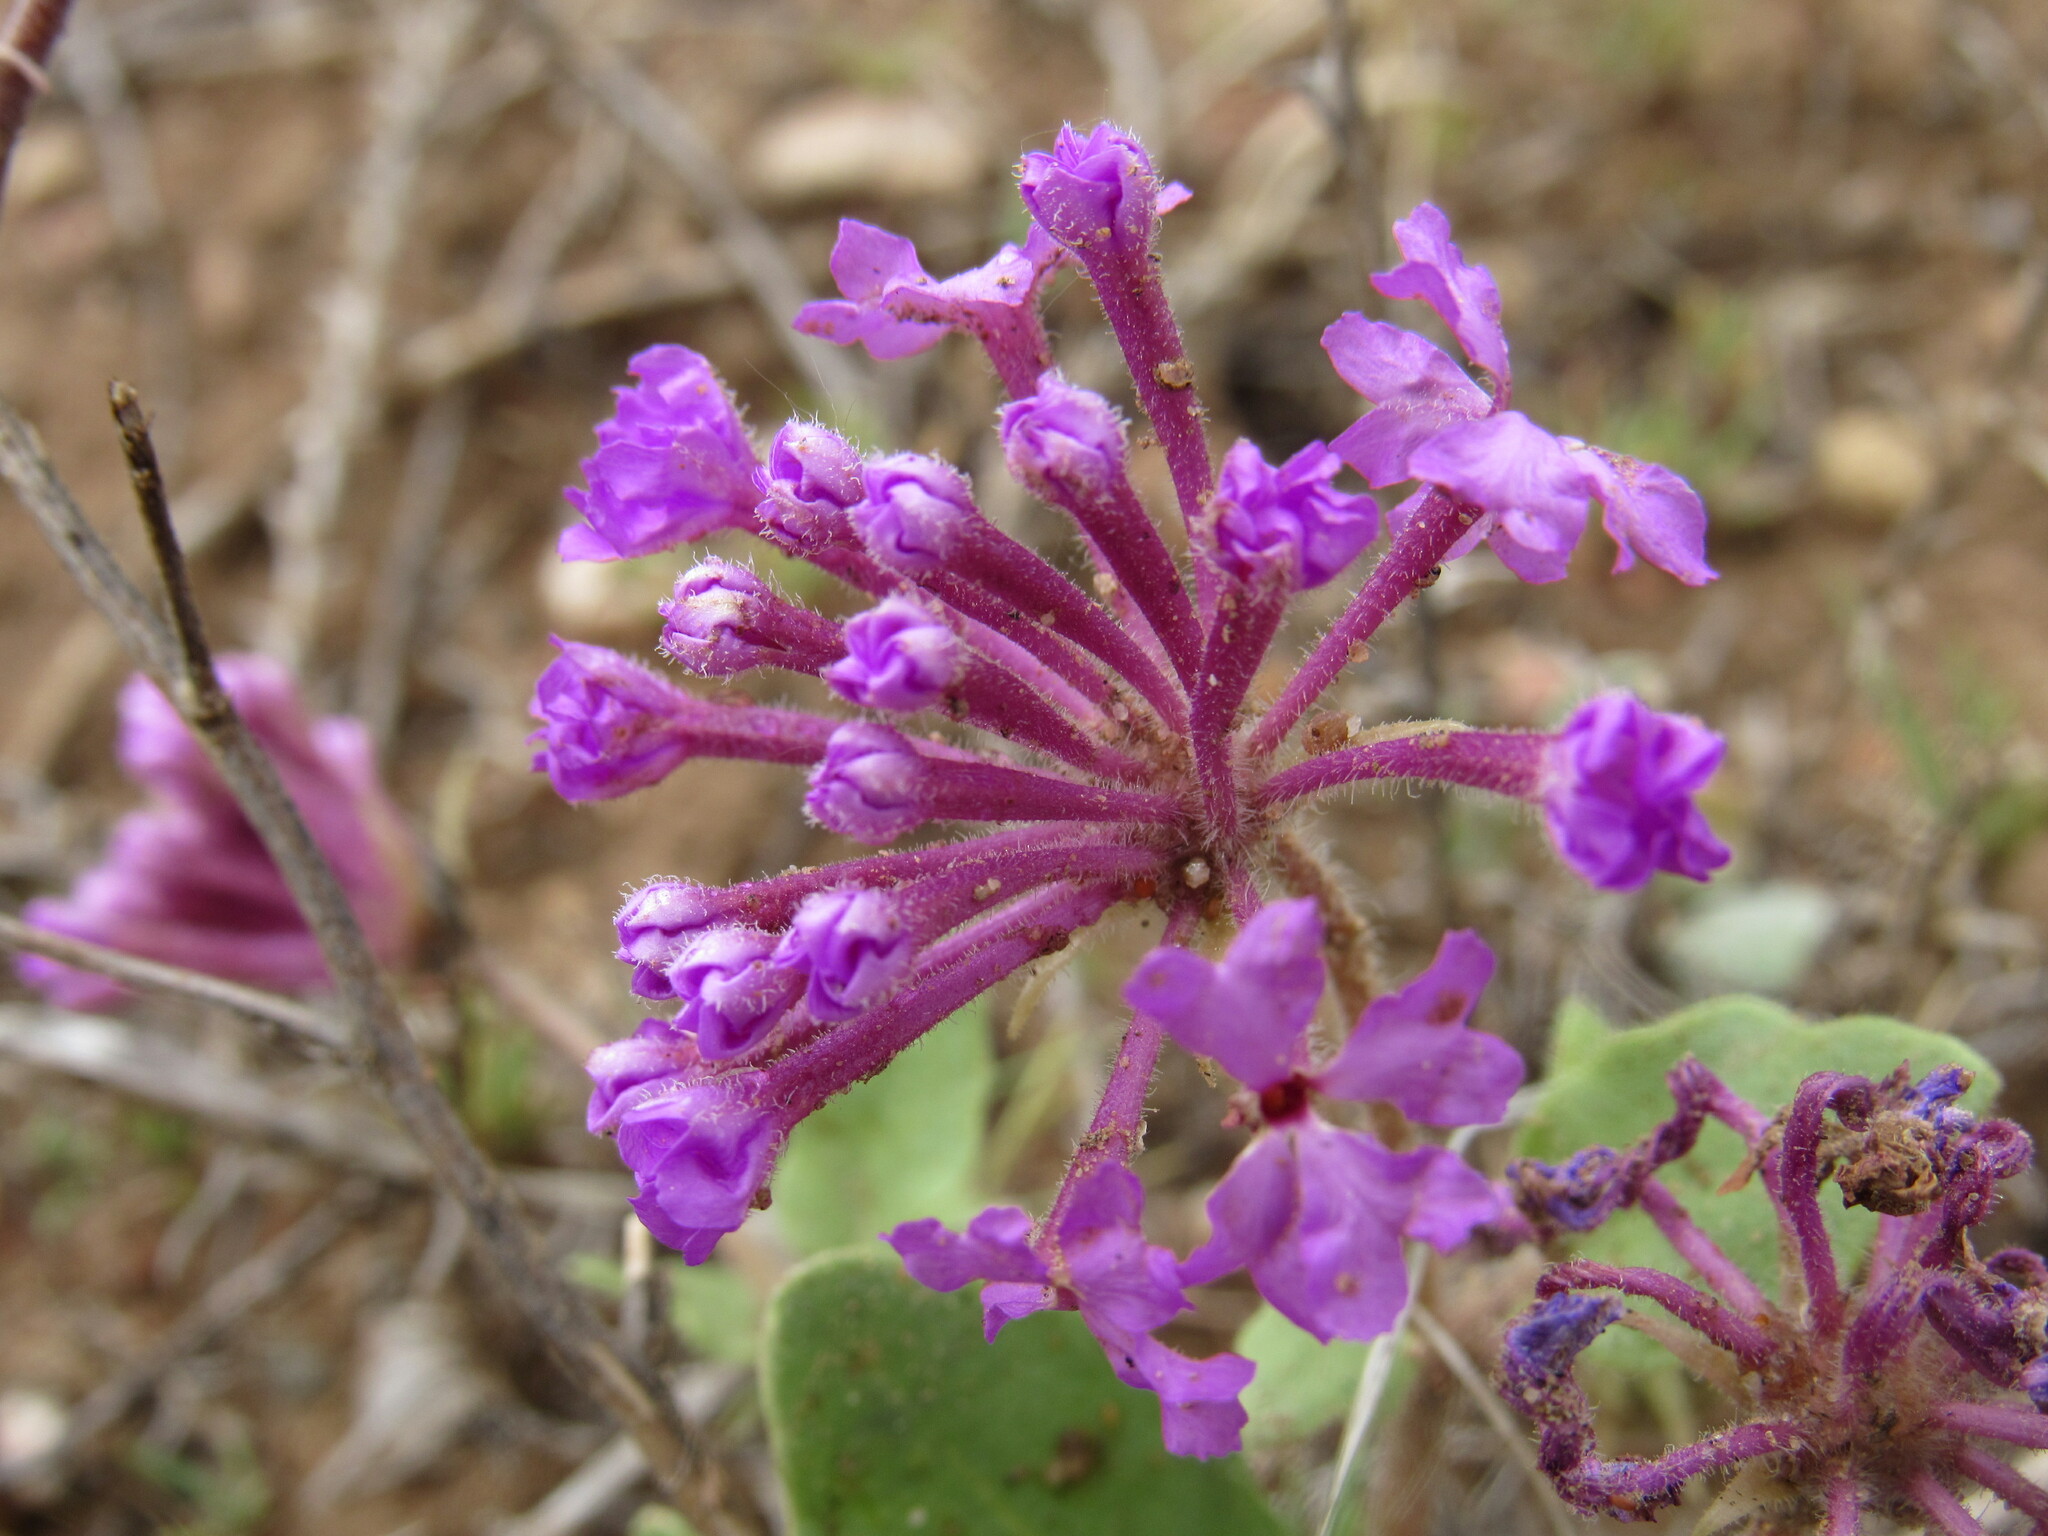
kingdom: Plantae
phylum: Tracheophyta
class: Magnoliopsida
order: Caryophyllales
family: Nyctaginaceae
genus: Abronia
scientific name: Abronia angustifolia
